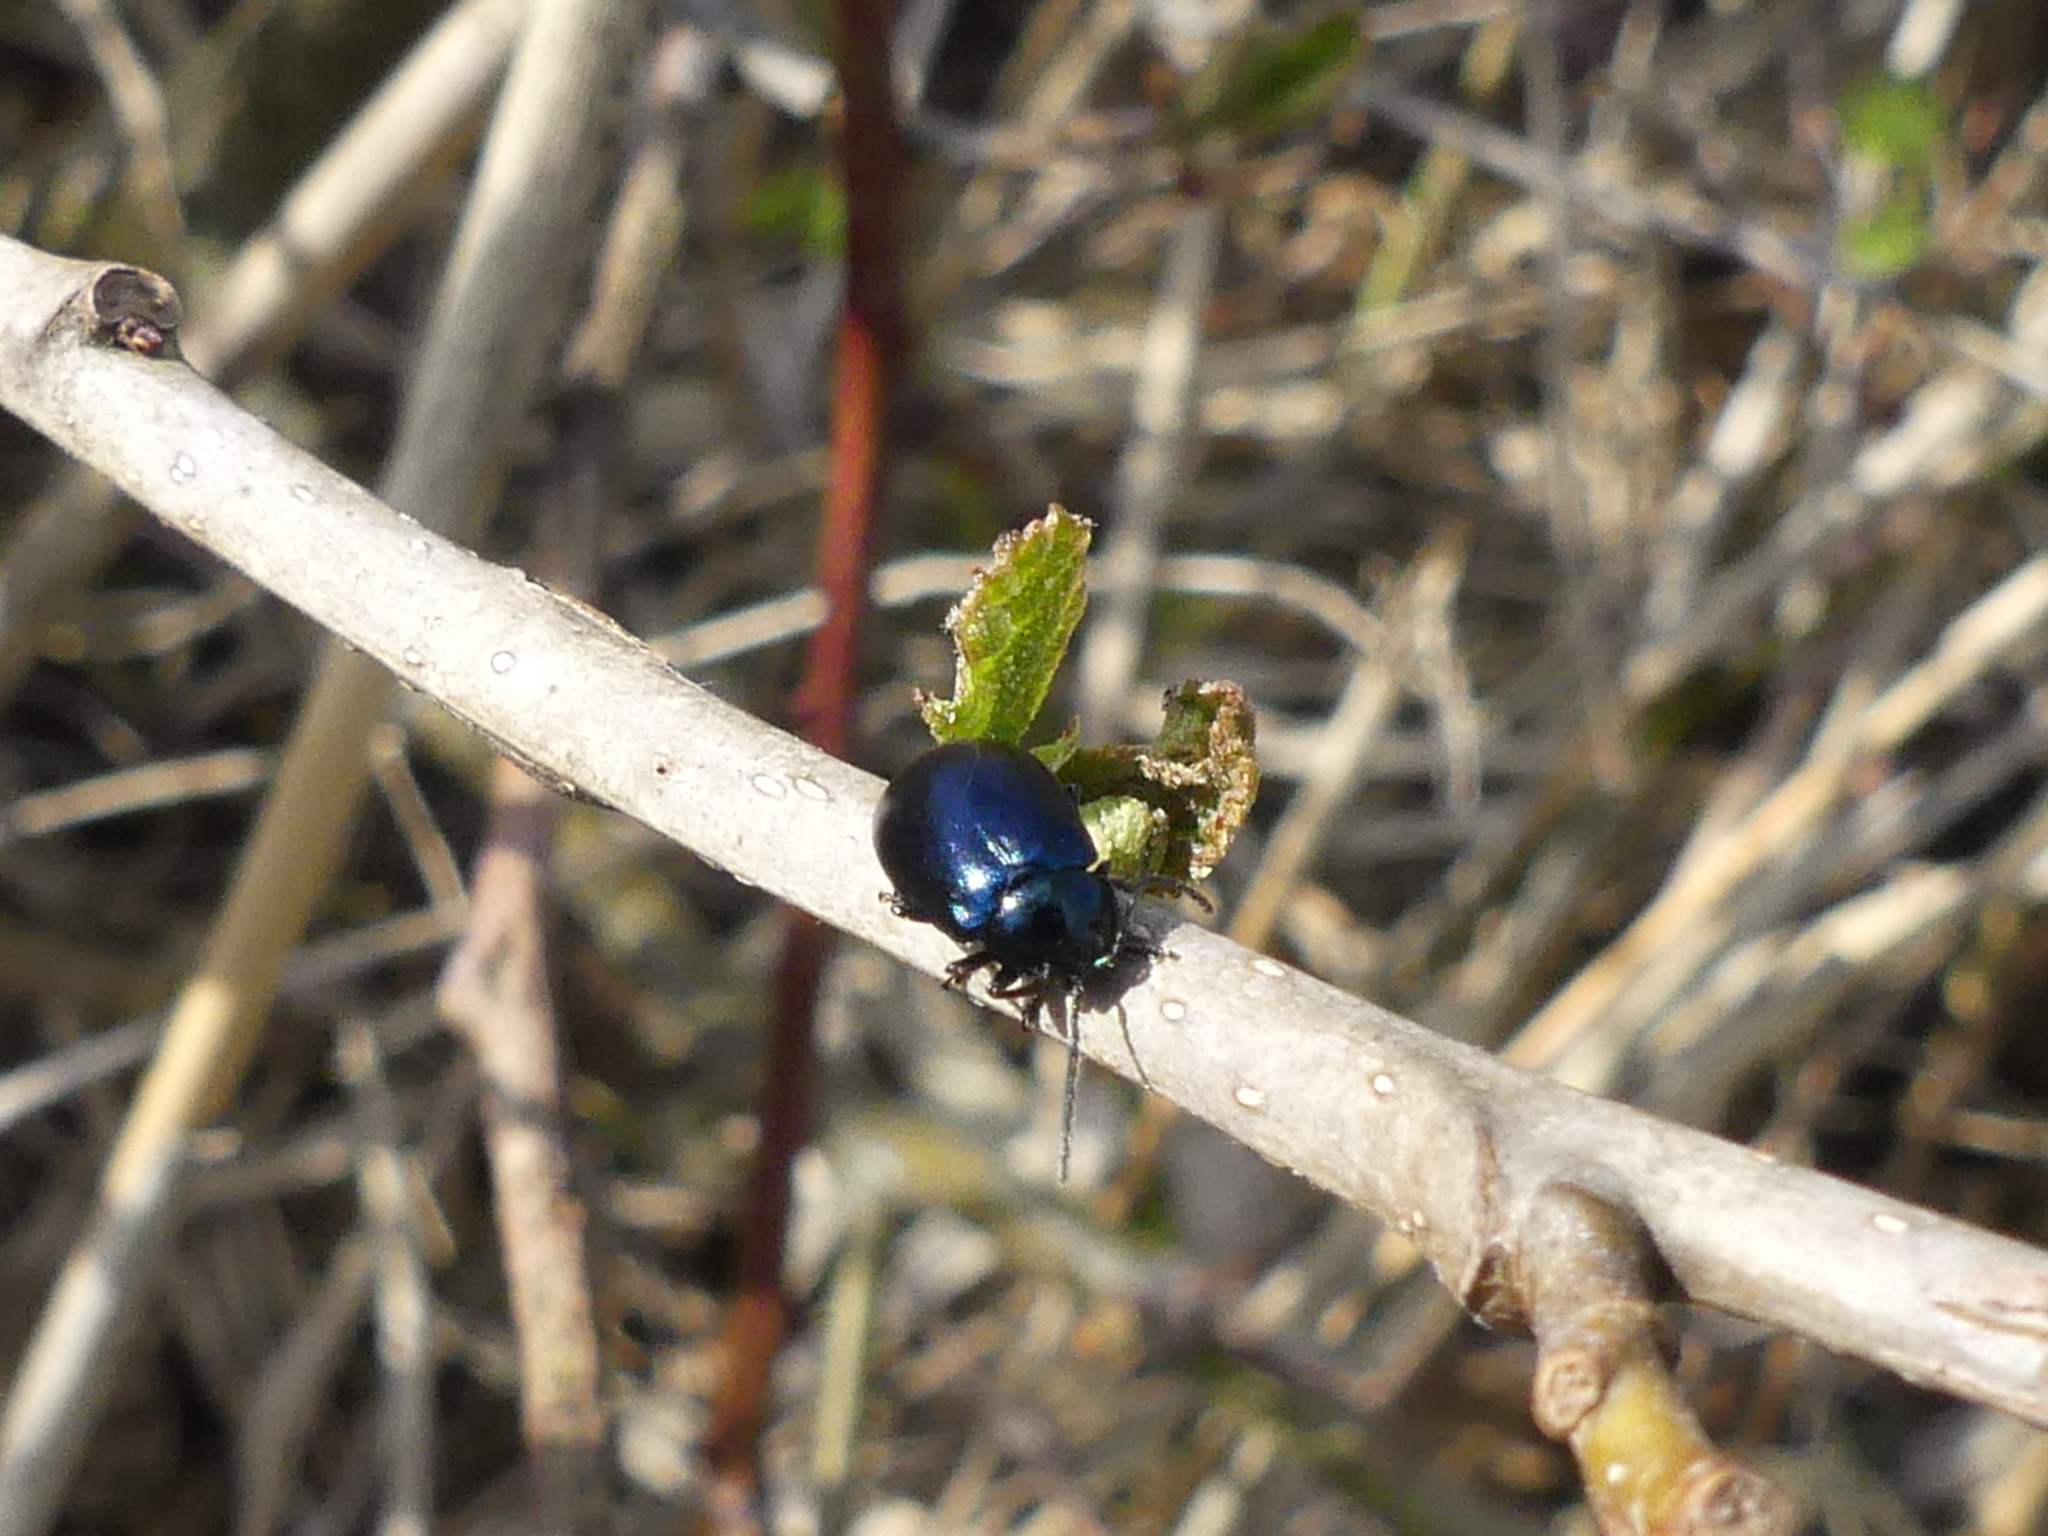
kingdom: Animalia
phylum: Arthropoda
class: Insecta
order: Coleoptera
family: Chrysomelidae
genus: Agelastica
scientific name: Agelastica alni
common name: Alder leaf beetle
